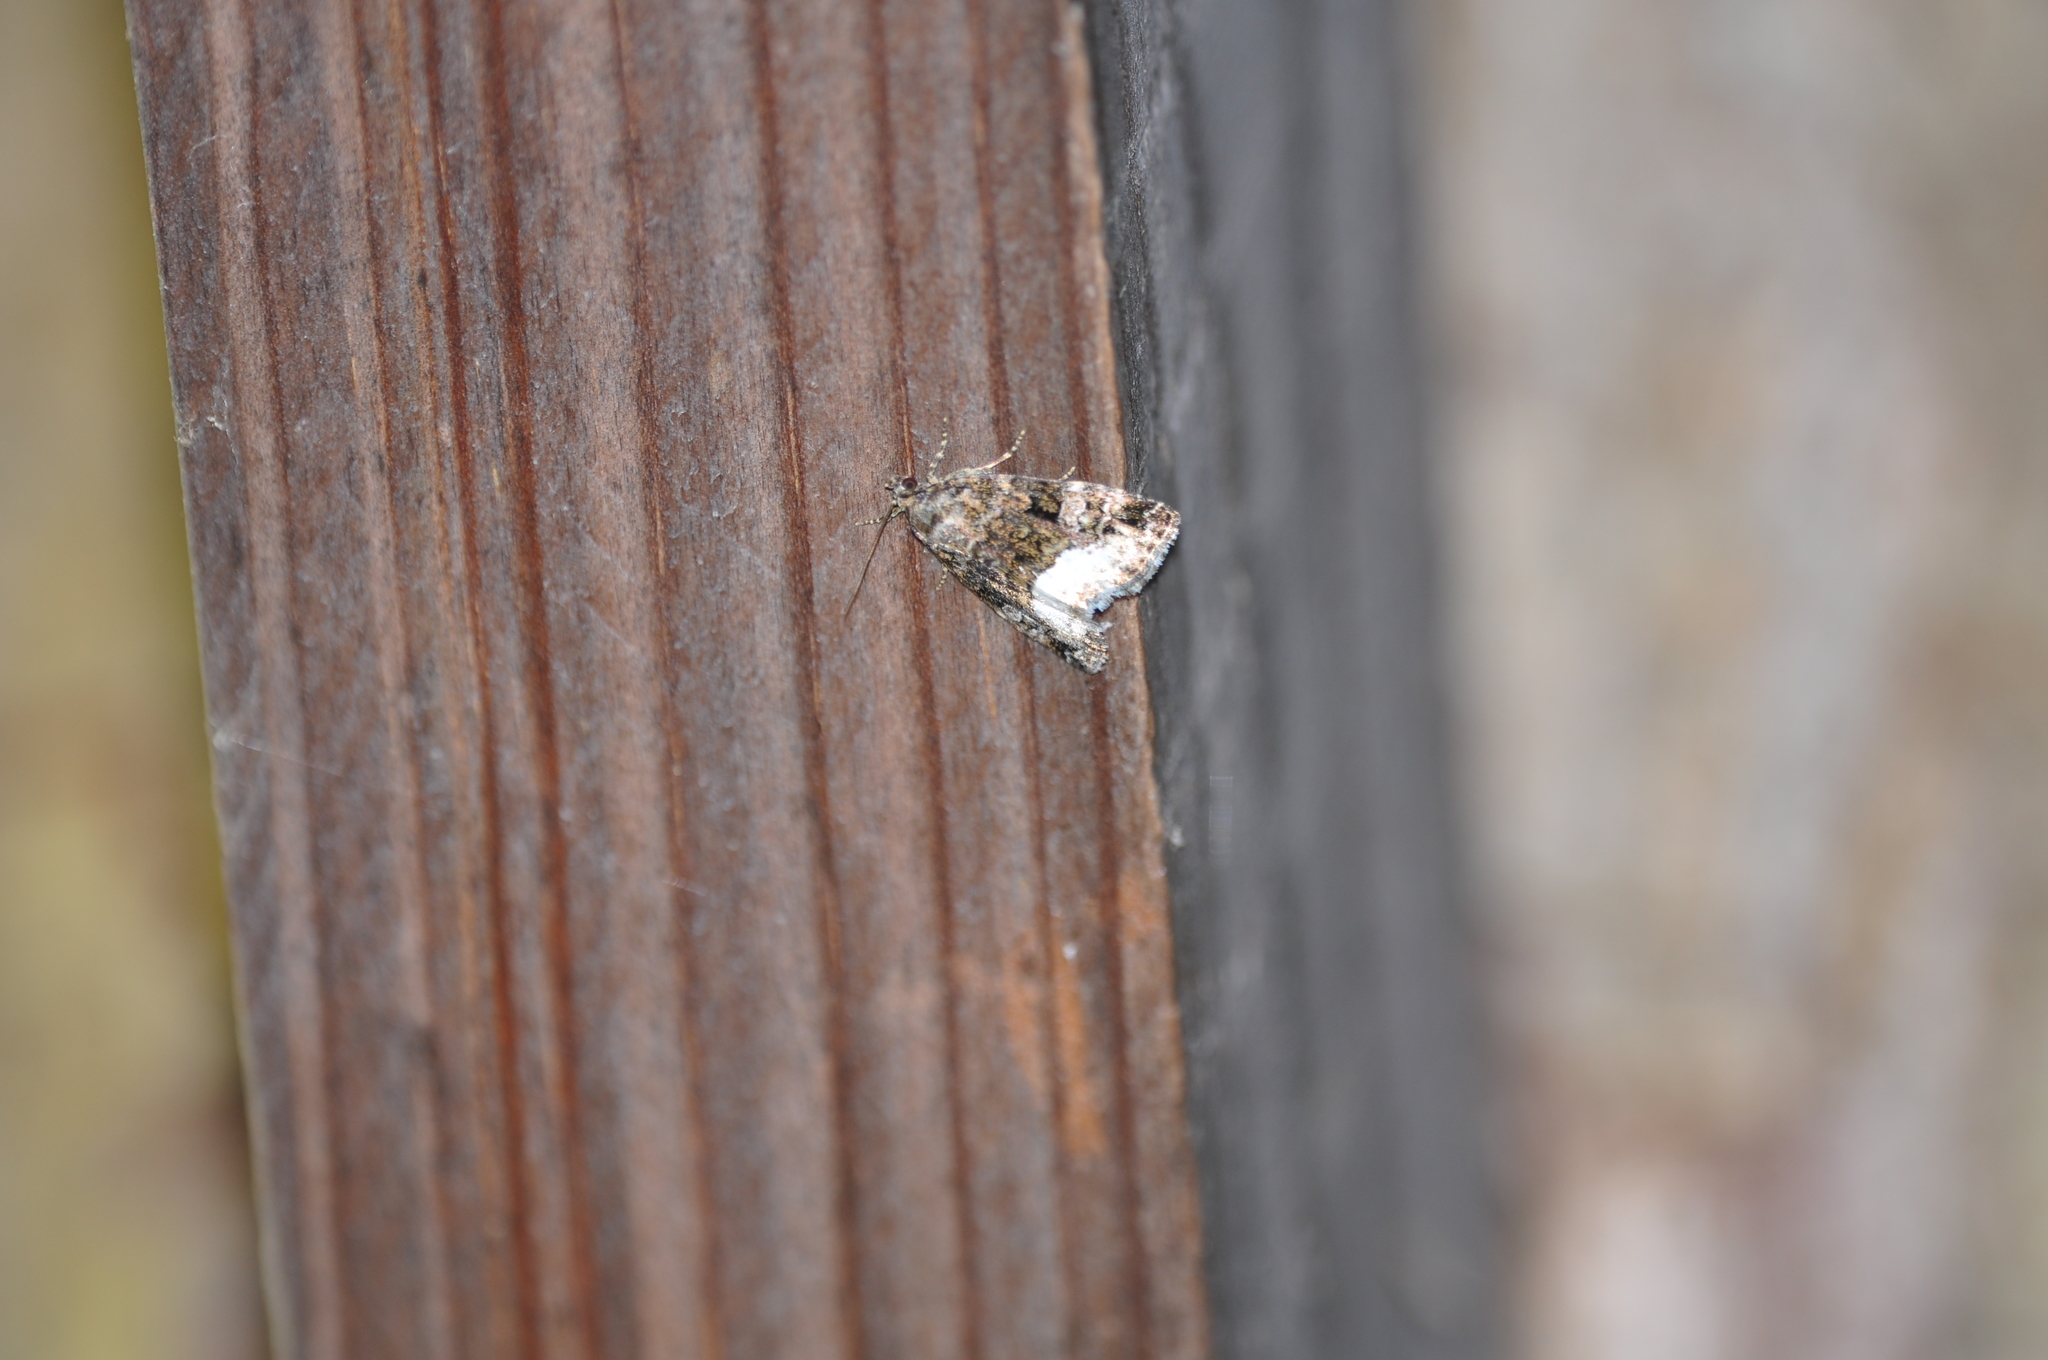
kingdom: Animalia
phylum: Arthropoda
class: Insecta
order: Lepidoptera
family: Noctuidae
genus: Deltote
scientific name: Deltote pygarga
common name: Marbled white spot
